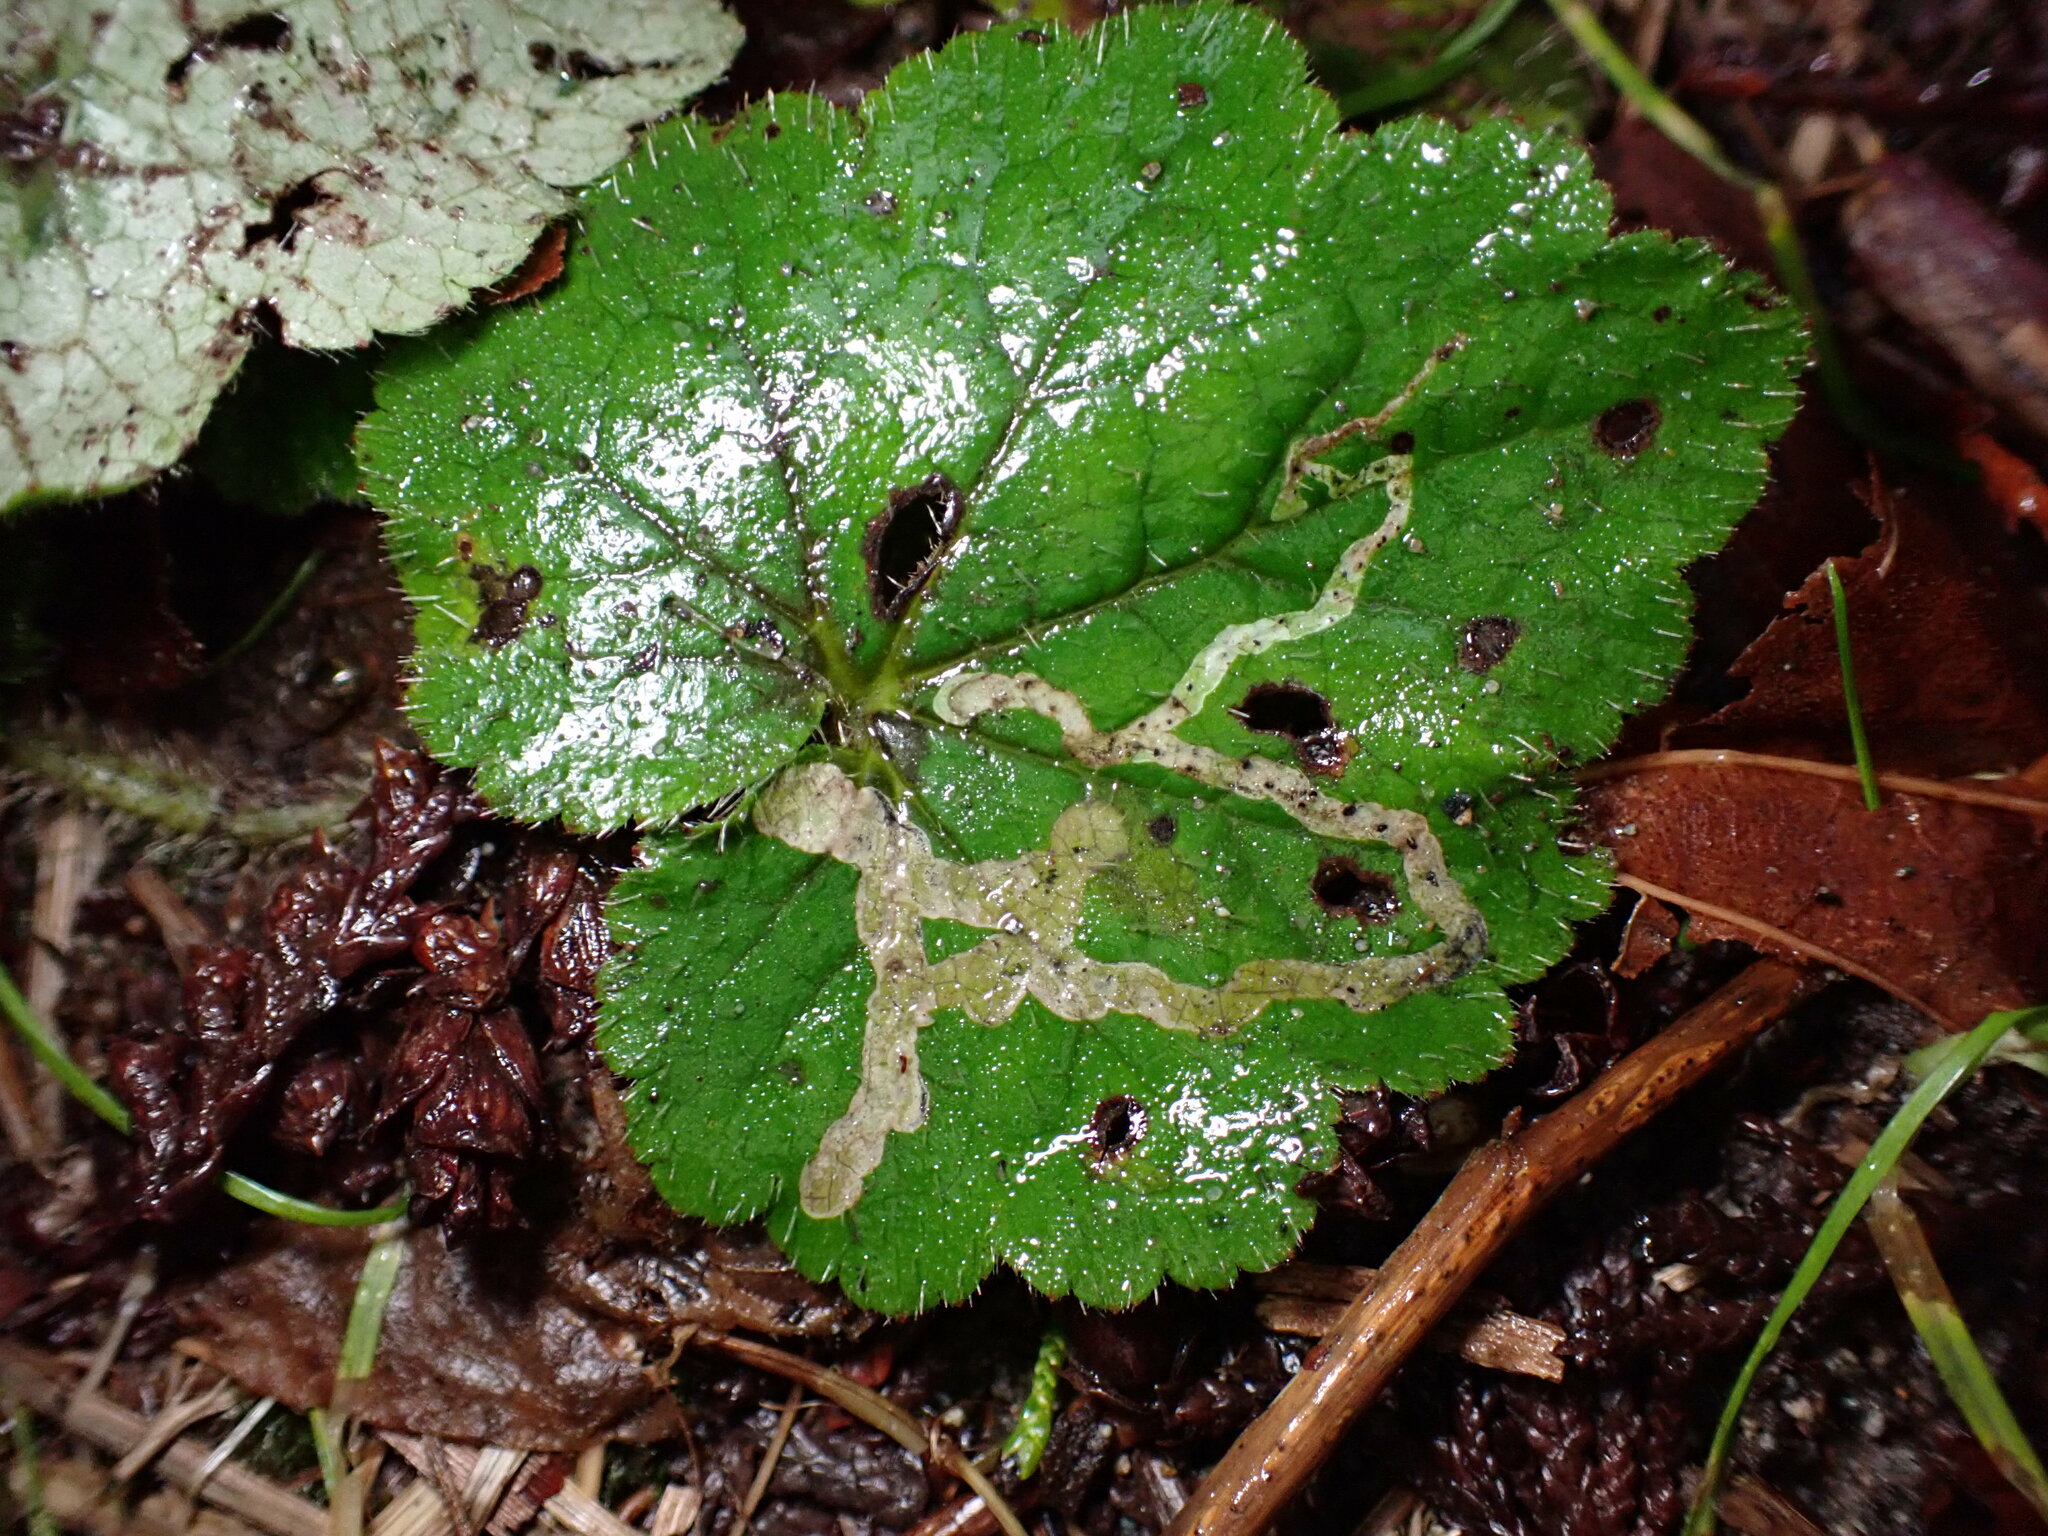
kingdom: Animalia
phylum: Arthropoda
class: Insecta
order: Diptera
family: Agromyzidae
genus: Phytomyza
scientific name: Phytomyza tiarellae
